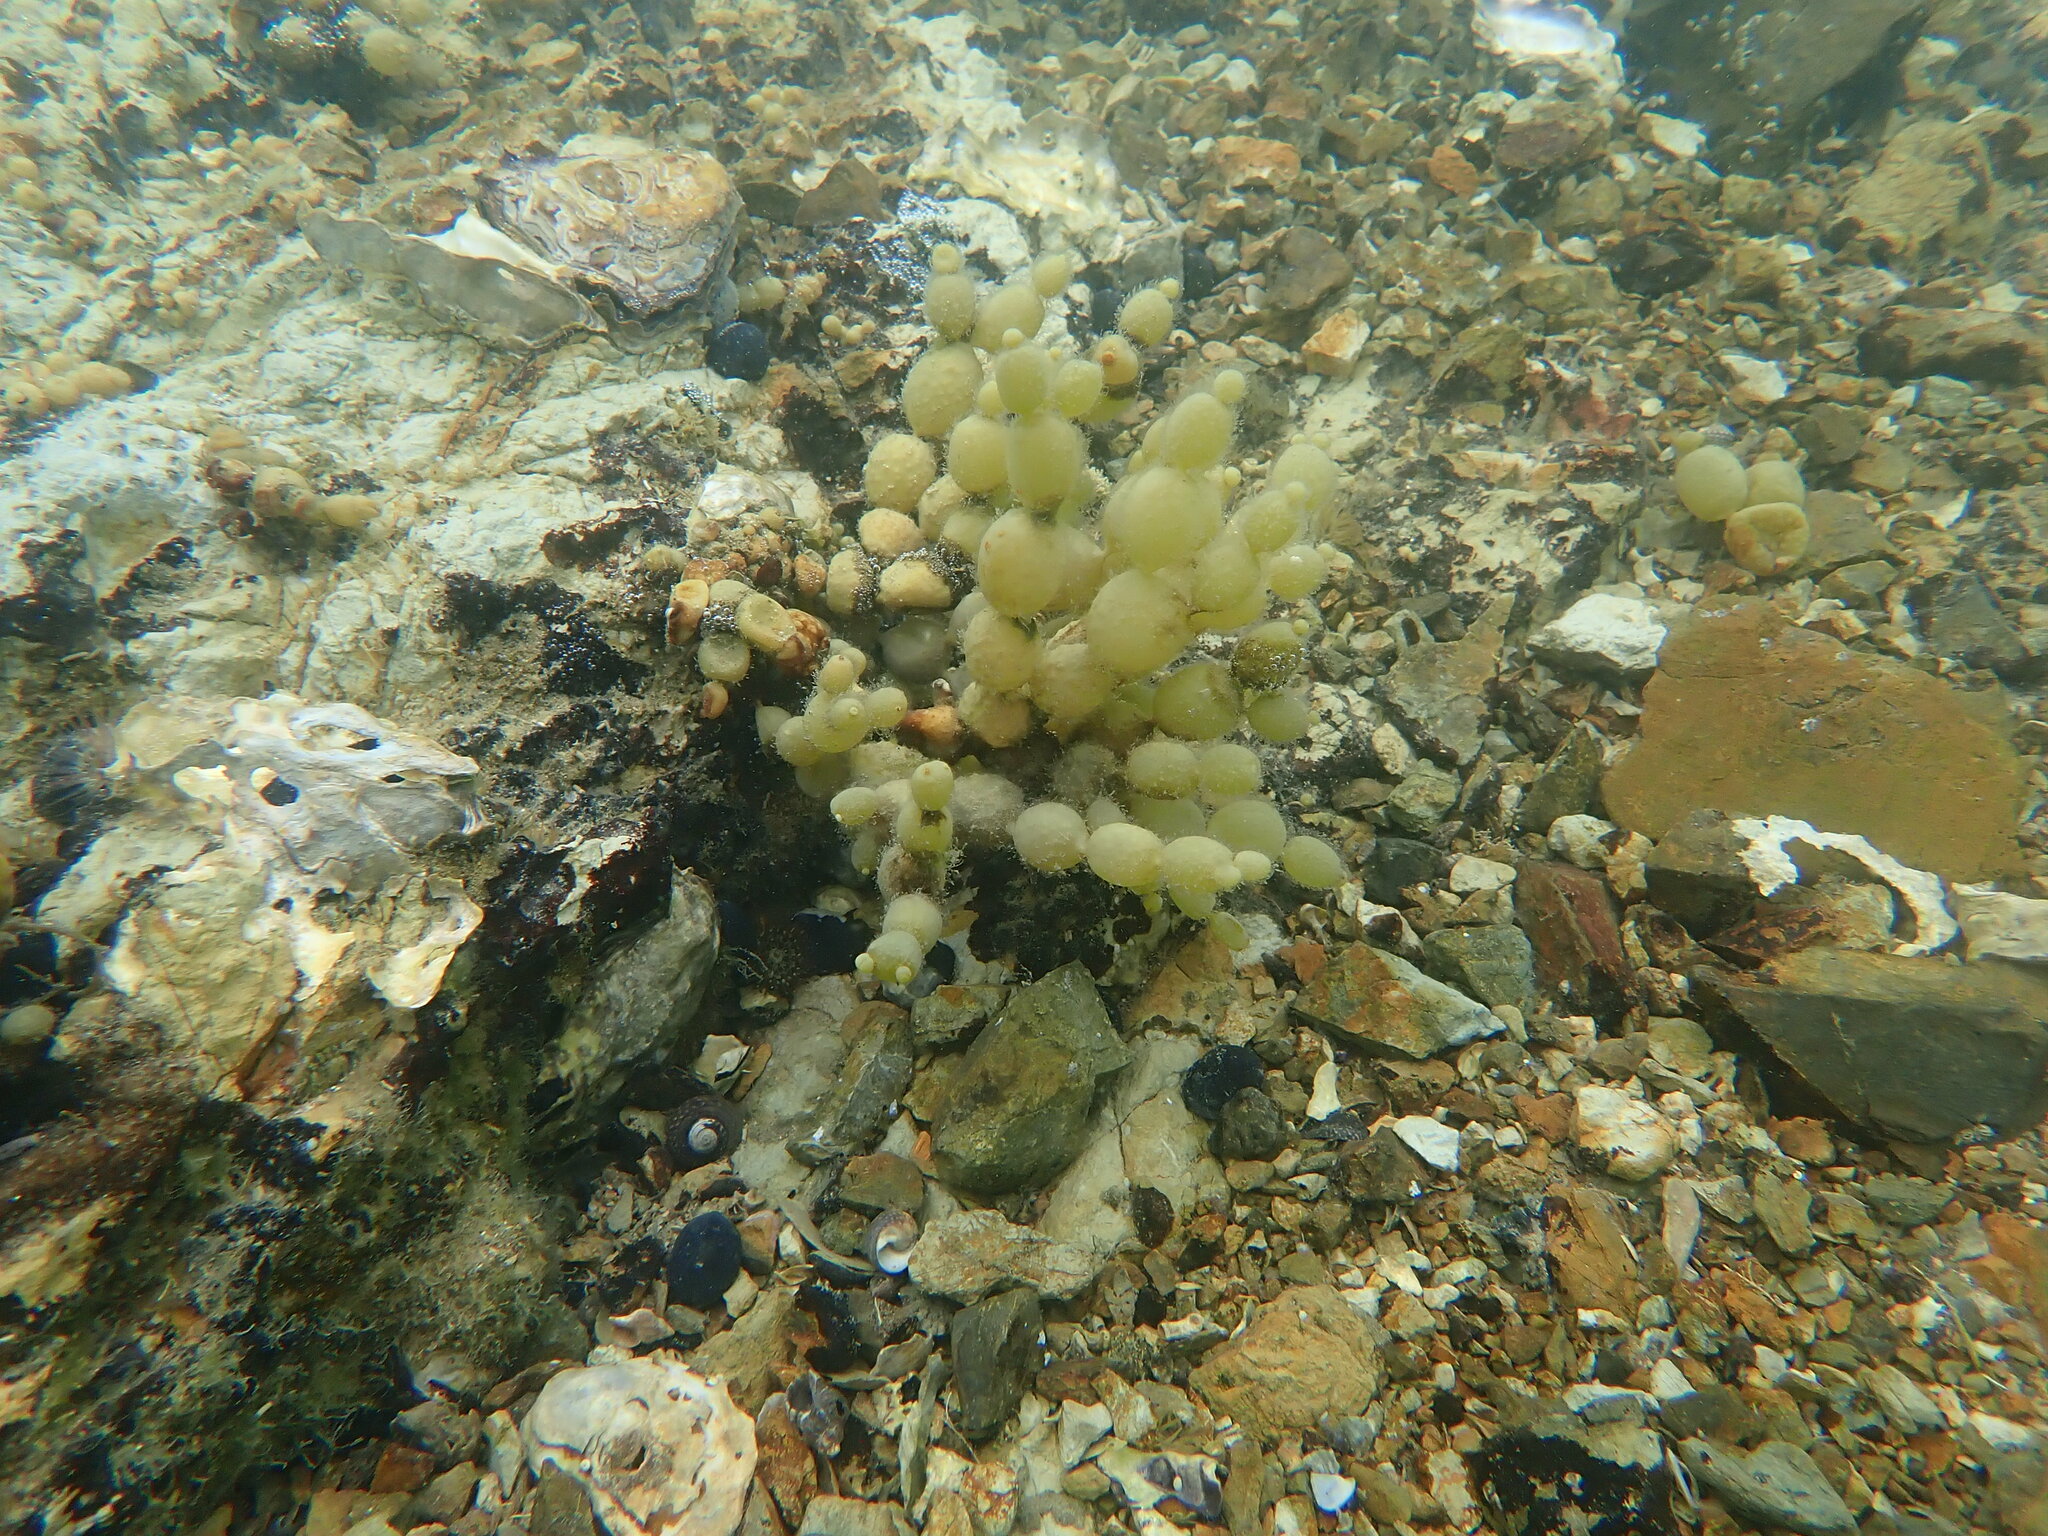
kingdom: Chromista
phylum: Ochrophyta
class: Phaeophyceae
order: Fucales
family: Hormosiraceae
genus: Hormosira
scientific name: Hormosira banksii
